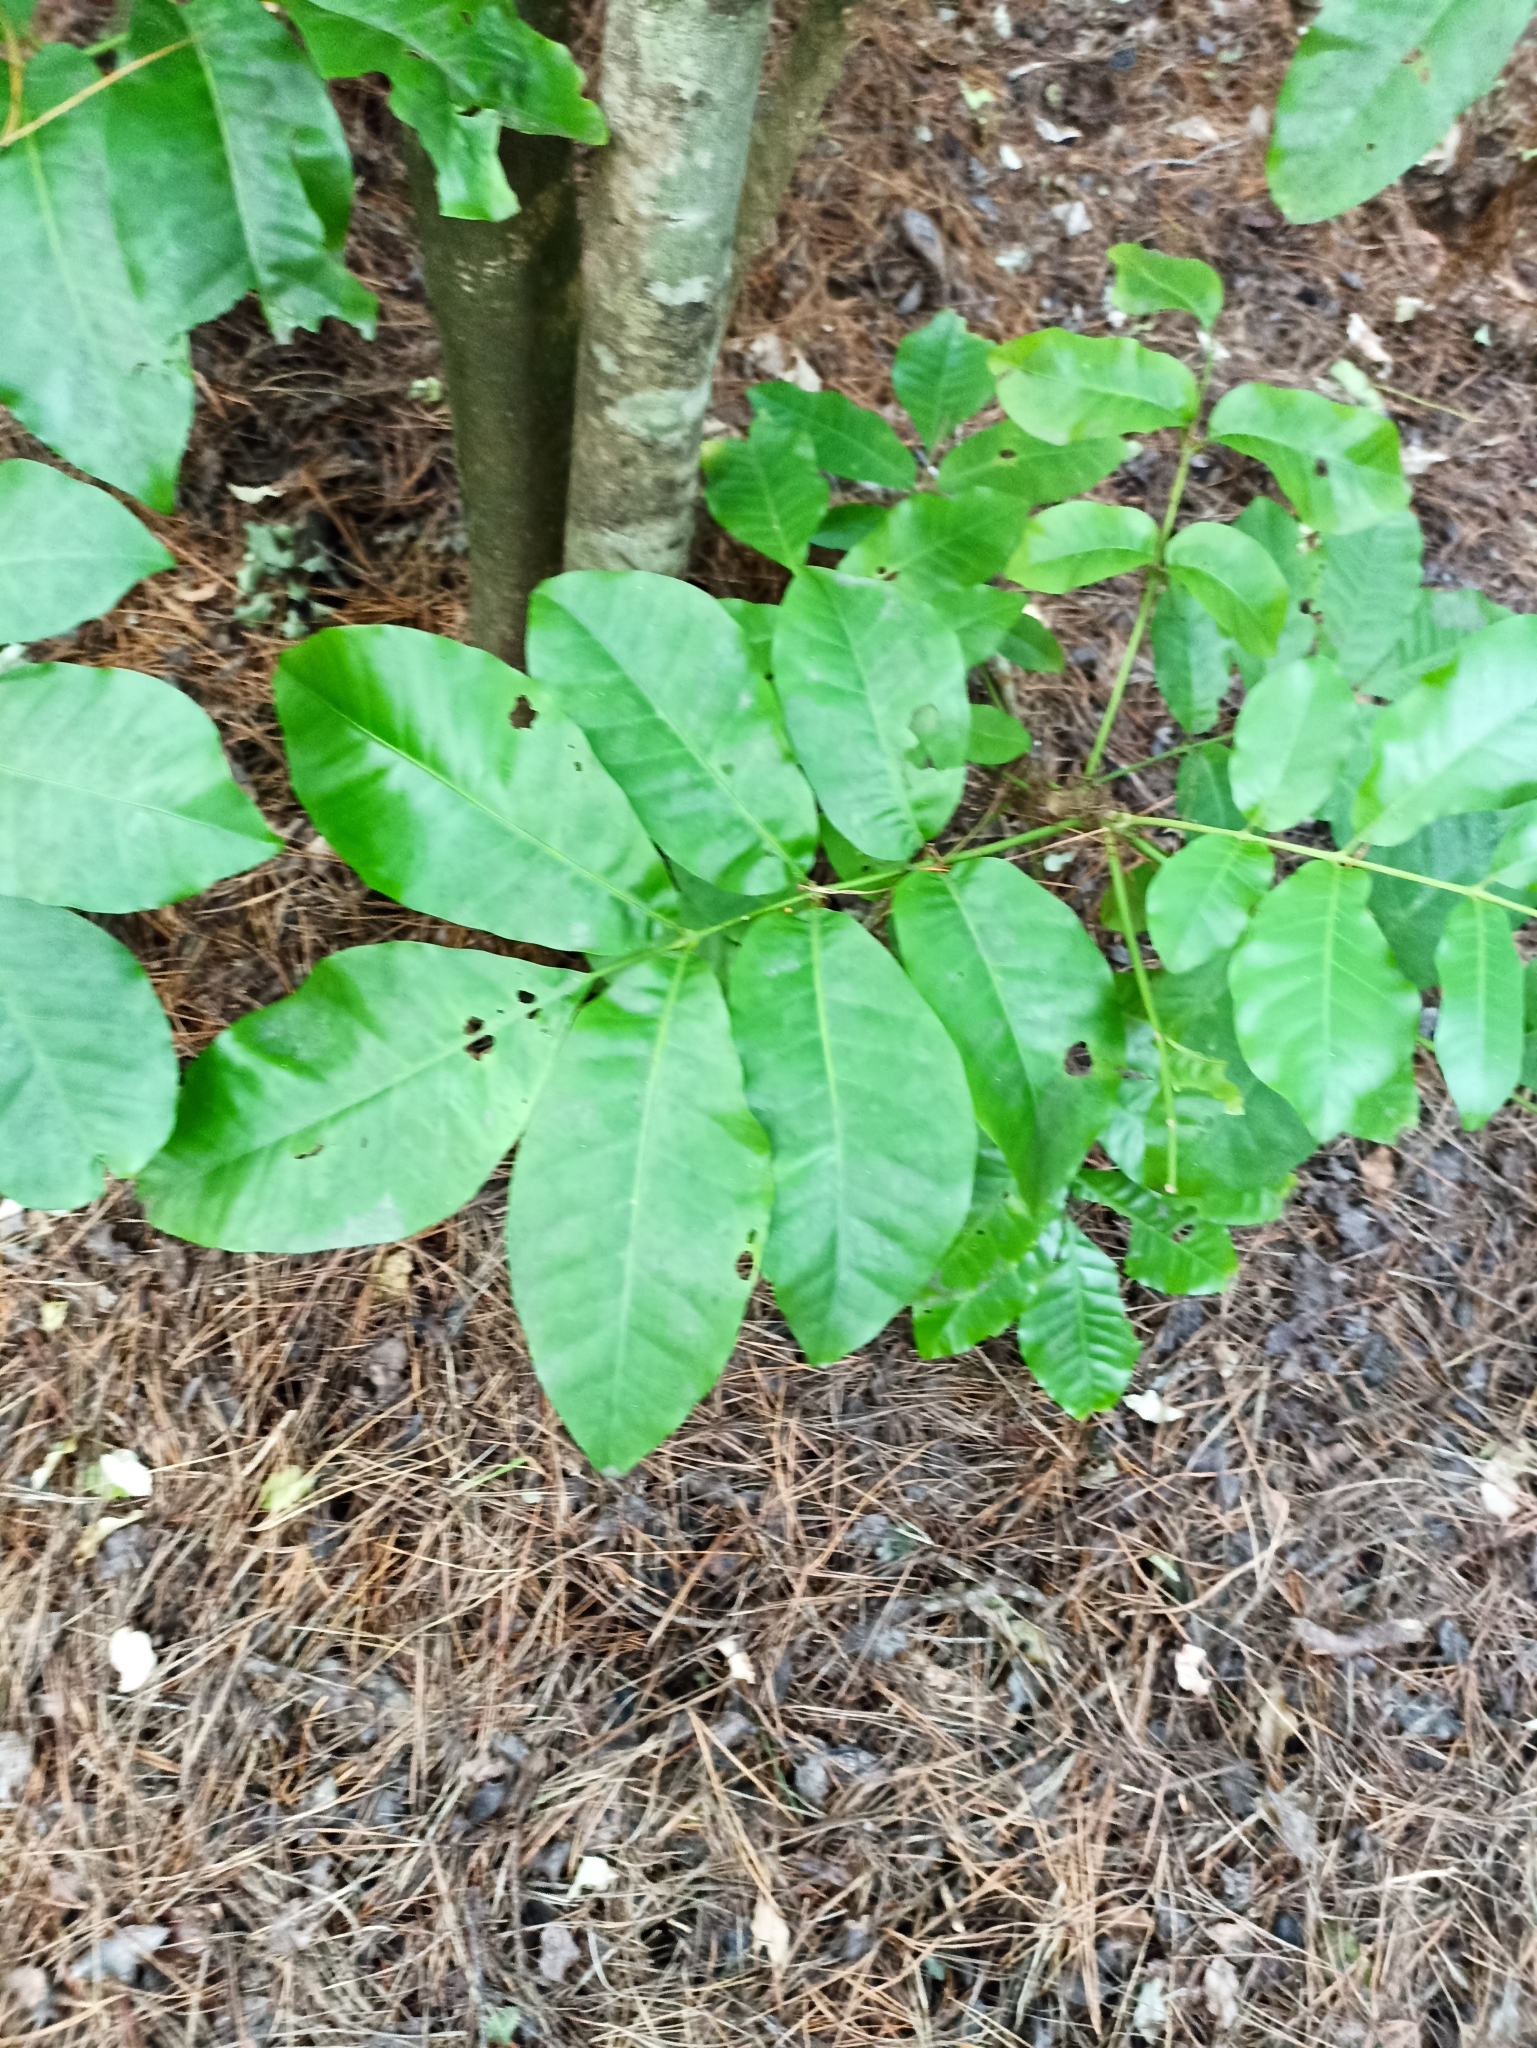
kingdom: Plantae
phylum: Tracheophyta
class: Magnoliopsida
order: Sapindales
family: Meliaceae
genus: Didymocheton
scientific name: Didymocheton spectabilis
